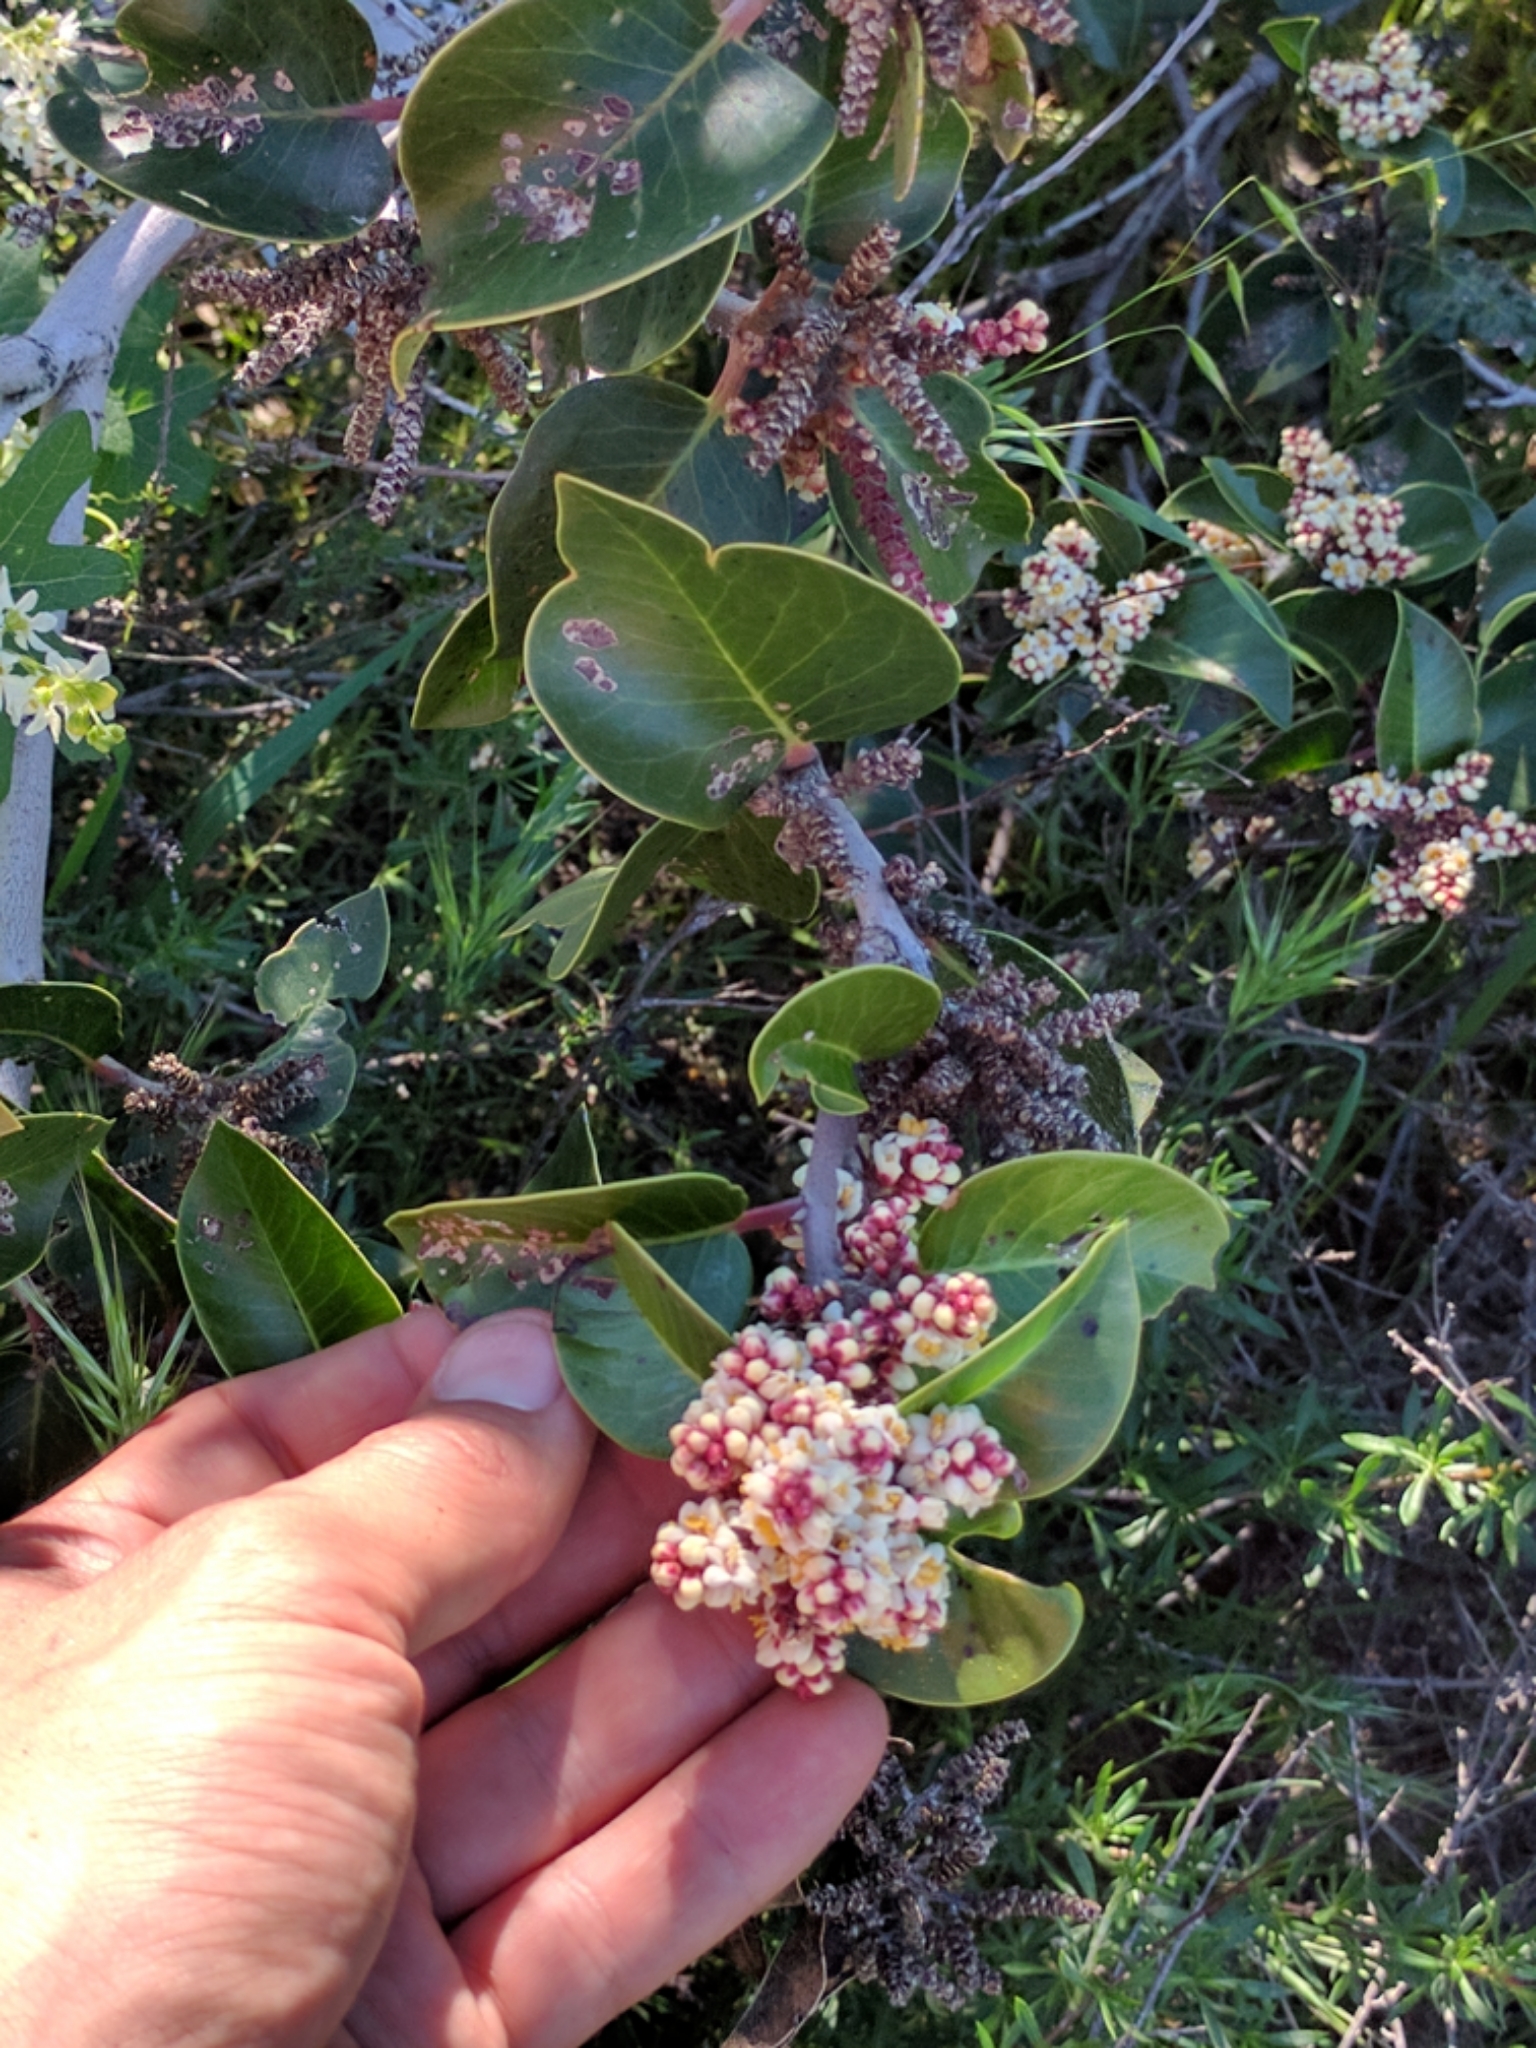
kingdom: Plantae
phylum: Tracheophyta
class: Magnoliopsida
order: Sapindales
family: Anacardiaceae
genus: Rhus
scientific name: Rhus ovata
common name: Sugar sumac
